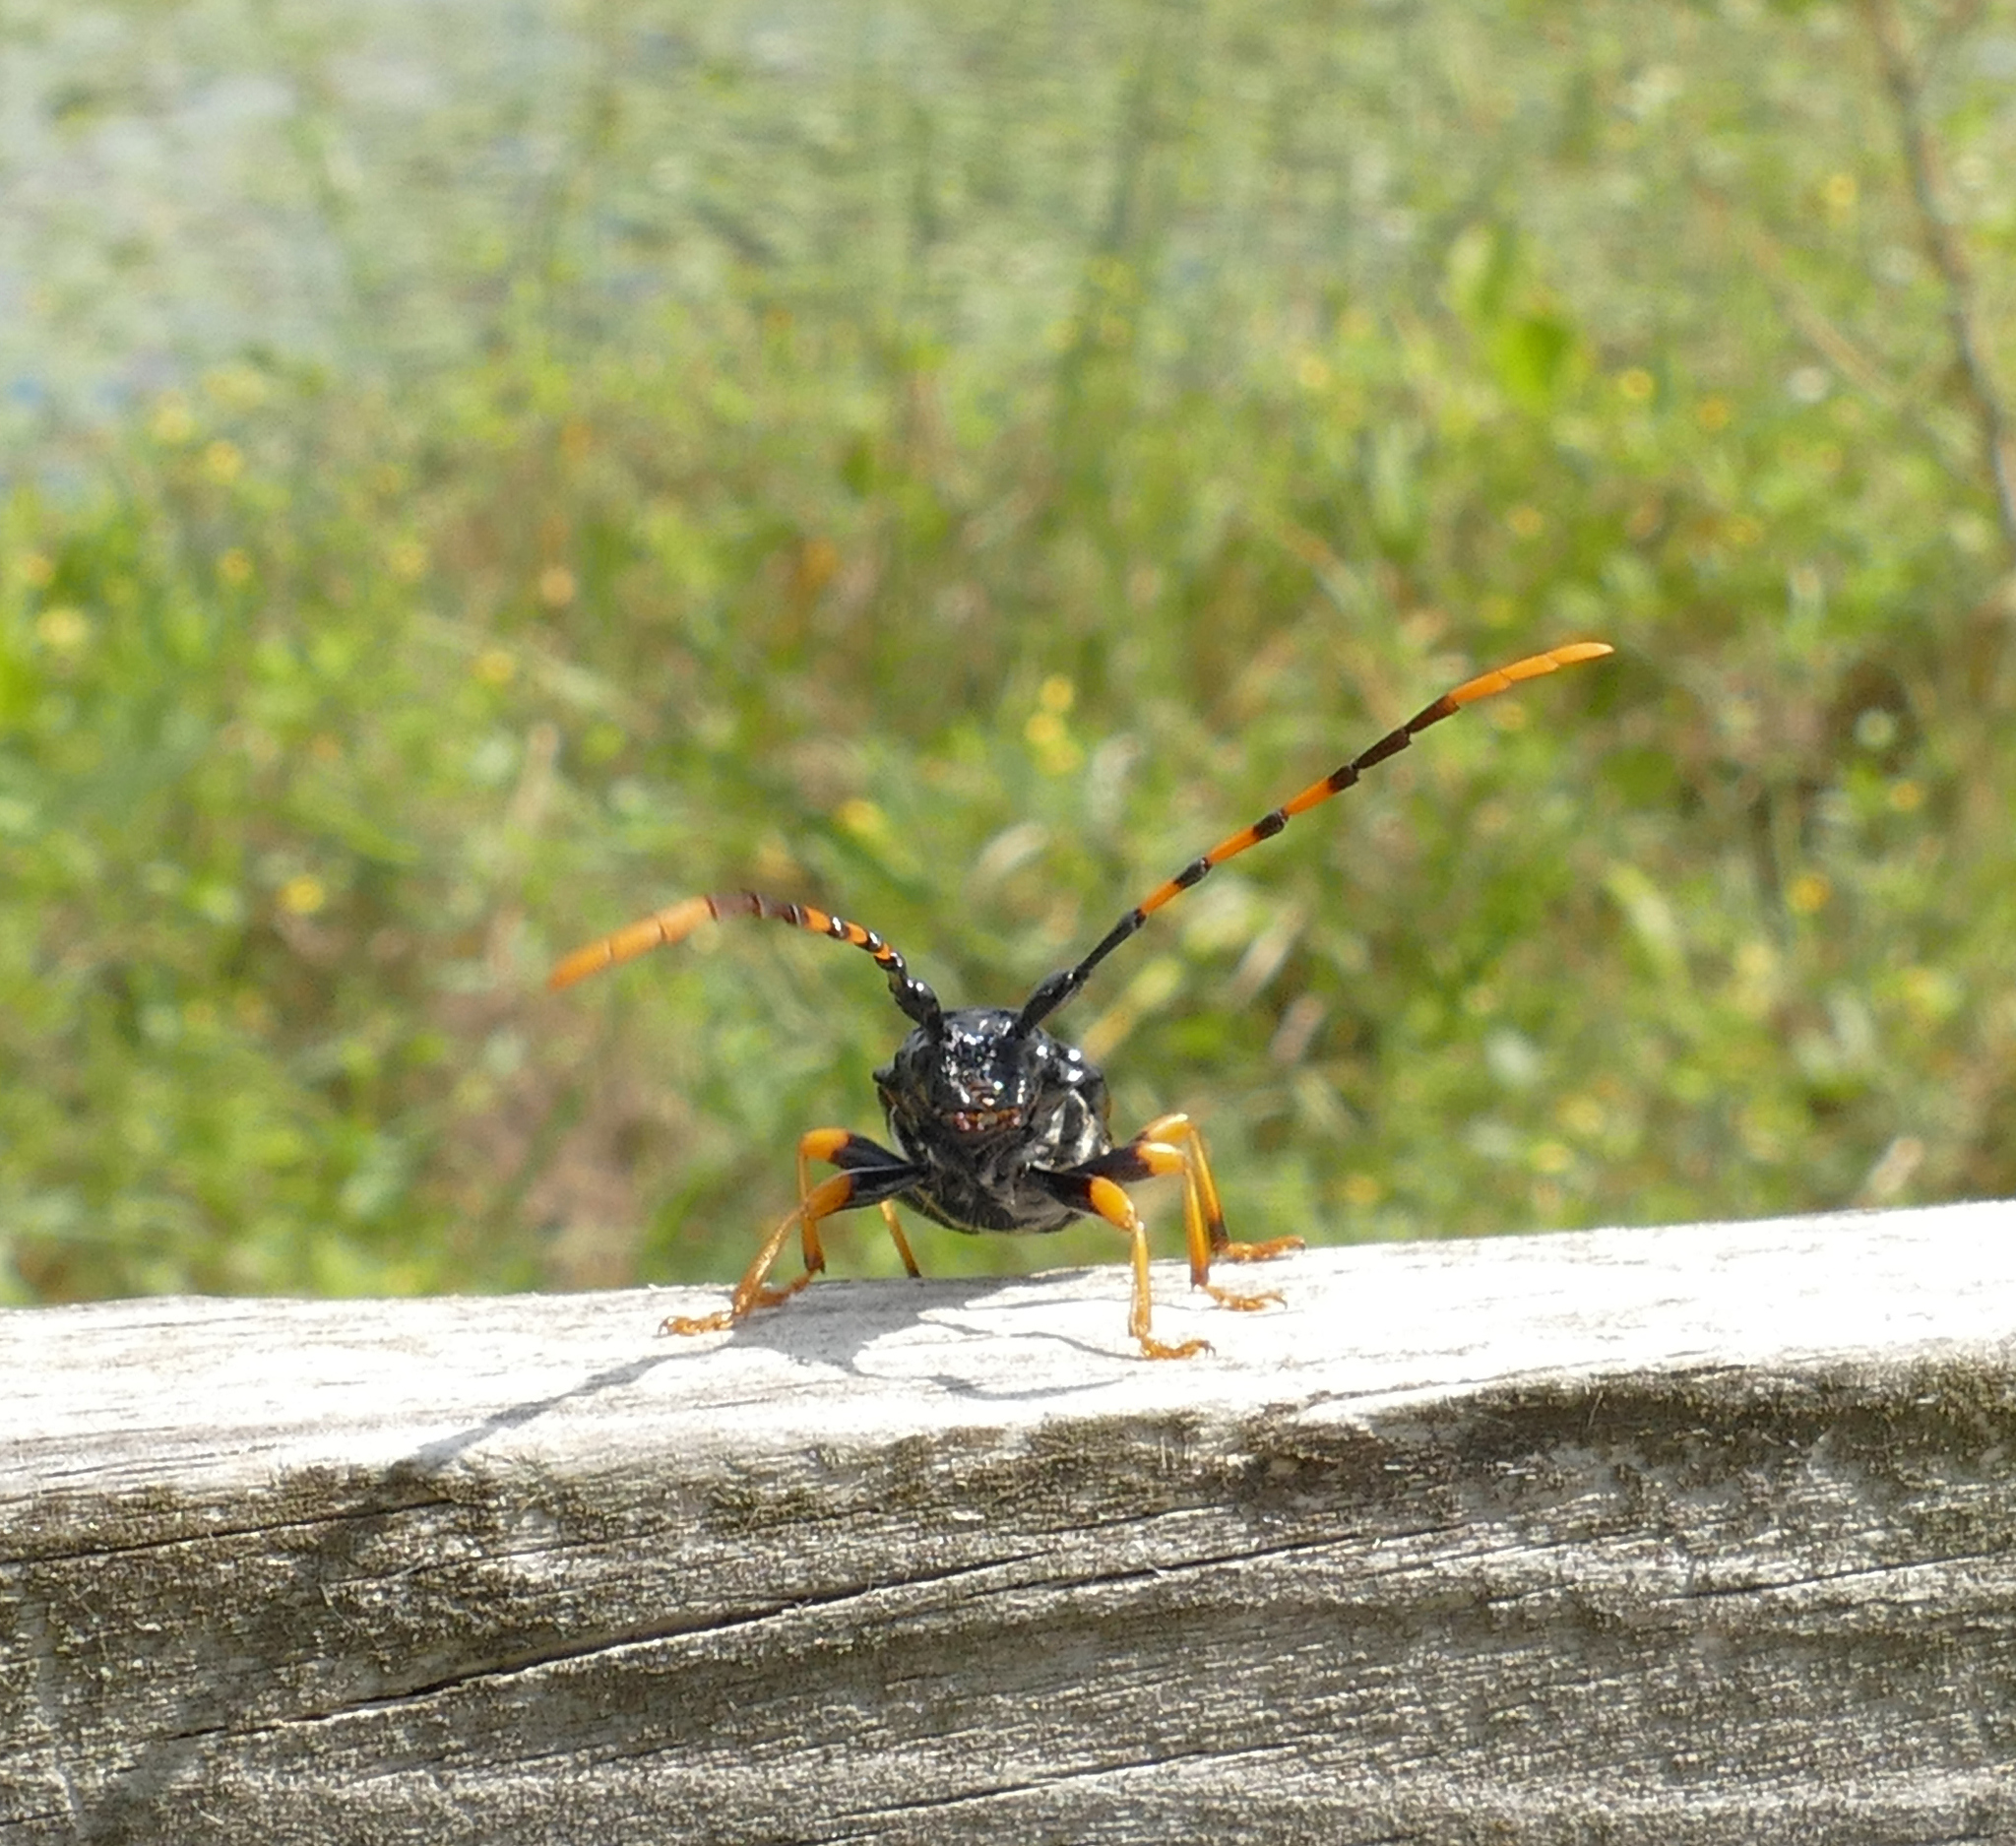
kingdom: Animalia
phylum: Arthropoda
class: Insecta
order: Coleoptera
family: Cerambycidae
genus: Trachyderes
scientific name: Trachyderes mandibularis
